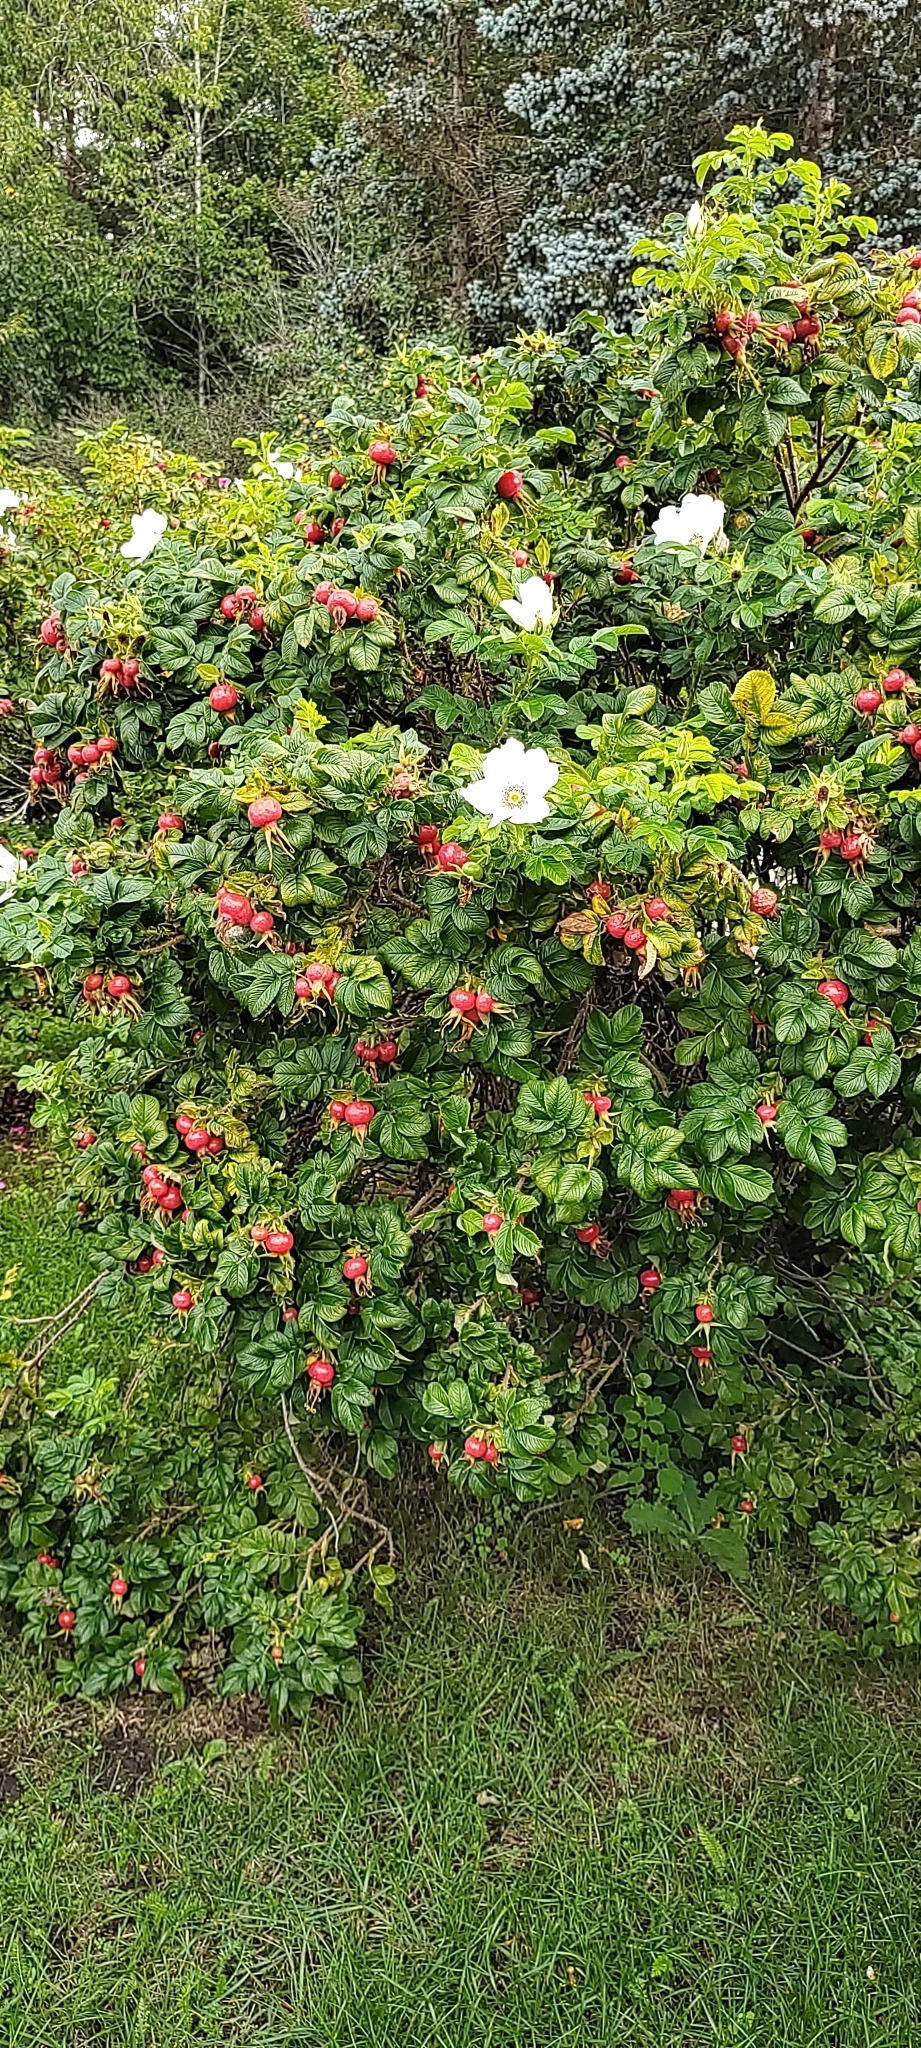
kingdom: Plantae
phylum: Tracheophyta
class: Magnoliopsida
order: Rosales
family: Rosaceae
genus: Rosa
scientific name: Rosa rugosa
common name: Japanese rose
